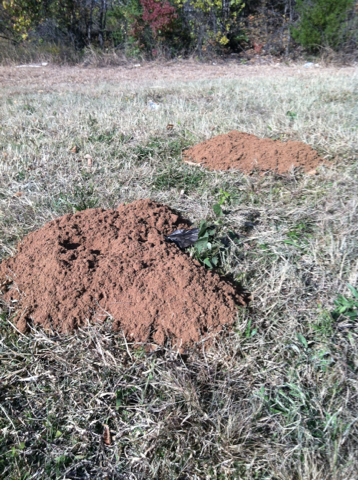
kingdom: Animalia
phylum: Chordata
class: Mammalia
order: Rodentia
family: Geomyidae
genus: Geomys
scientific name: Geomys bursarius
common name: Plains pocket gopher
